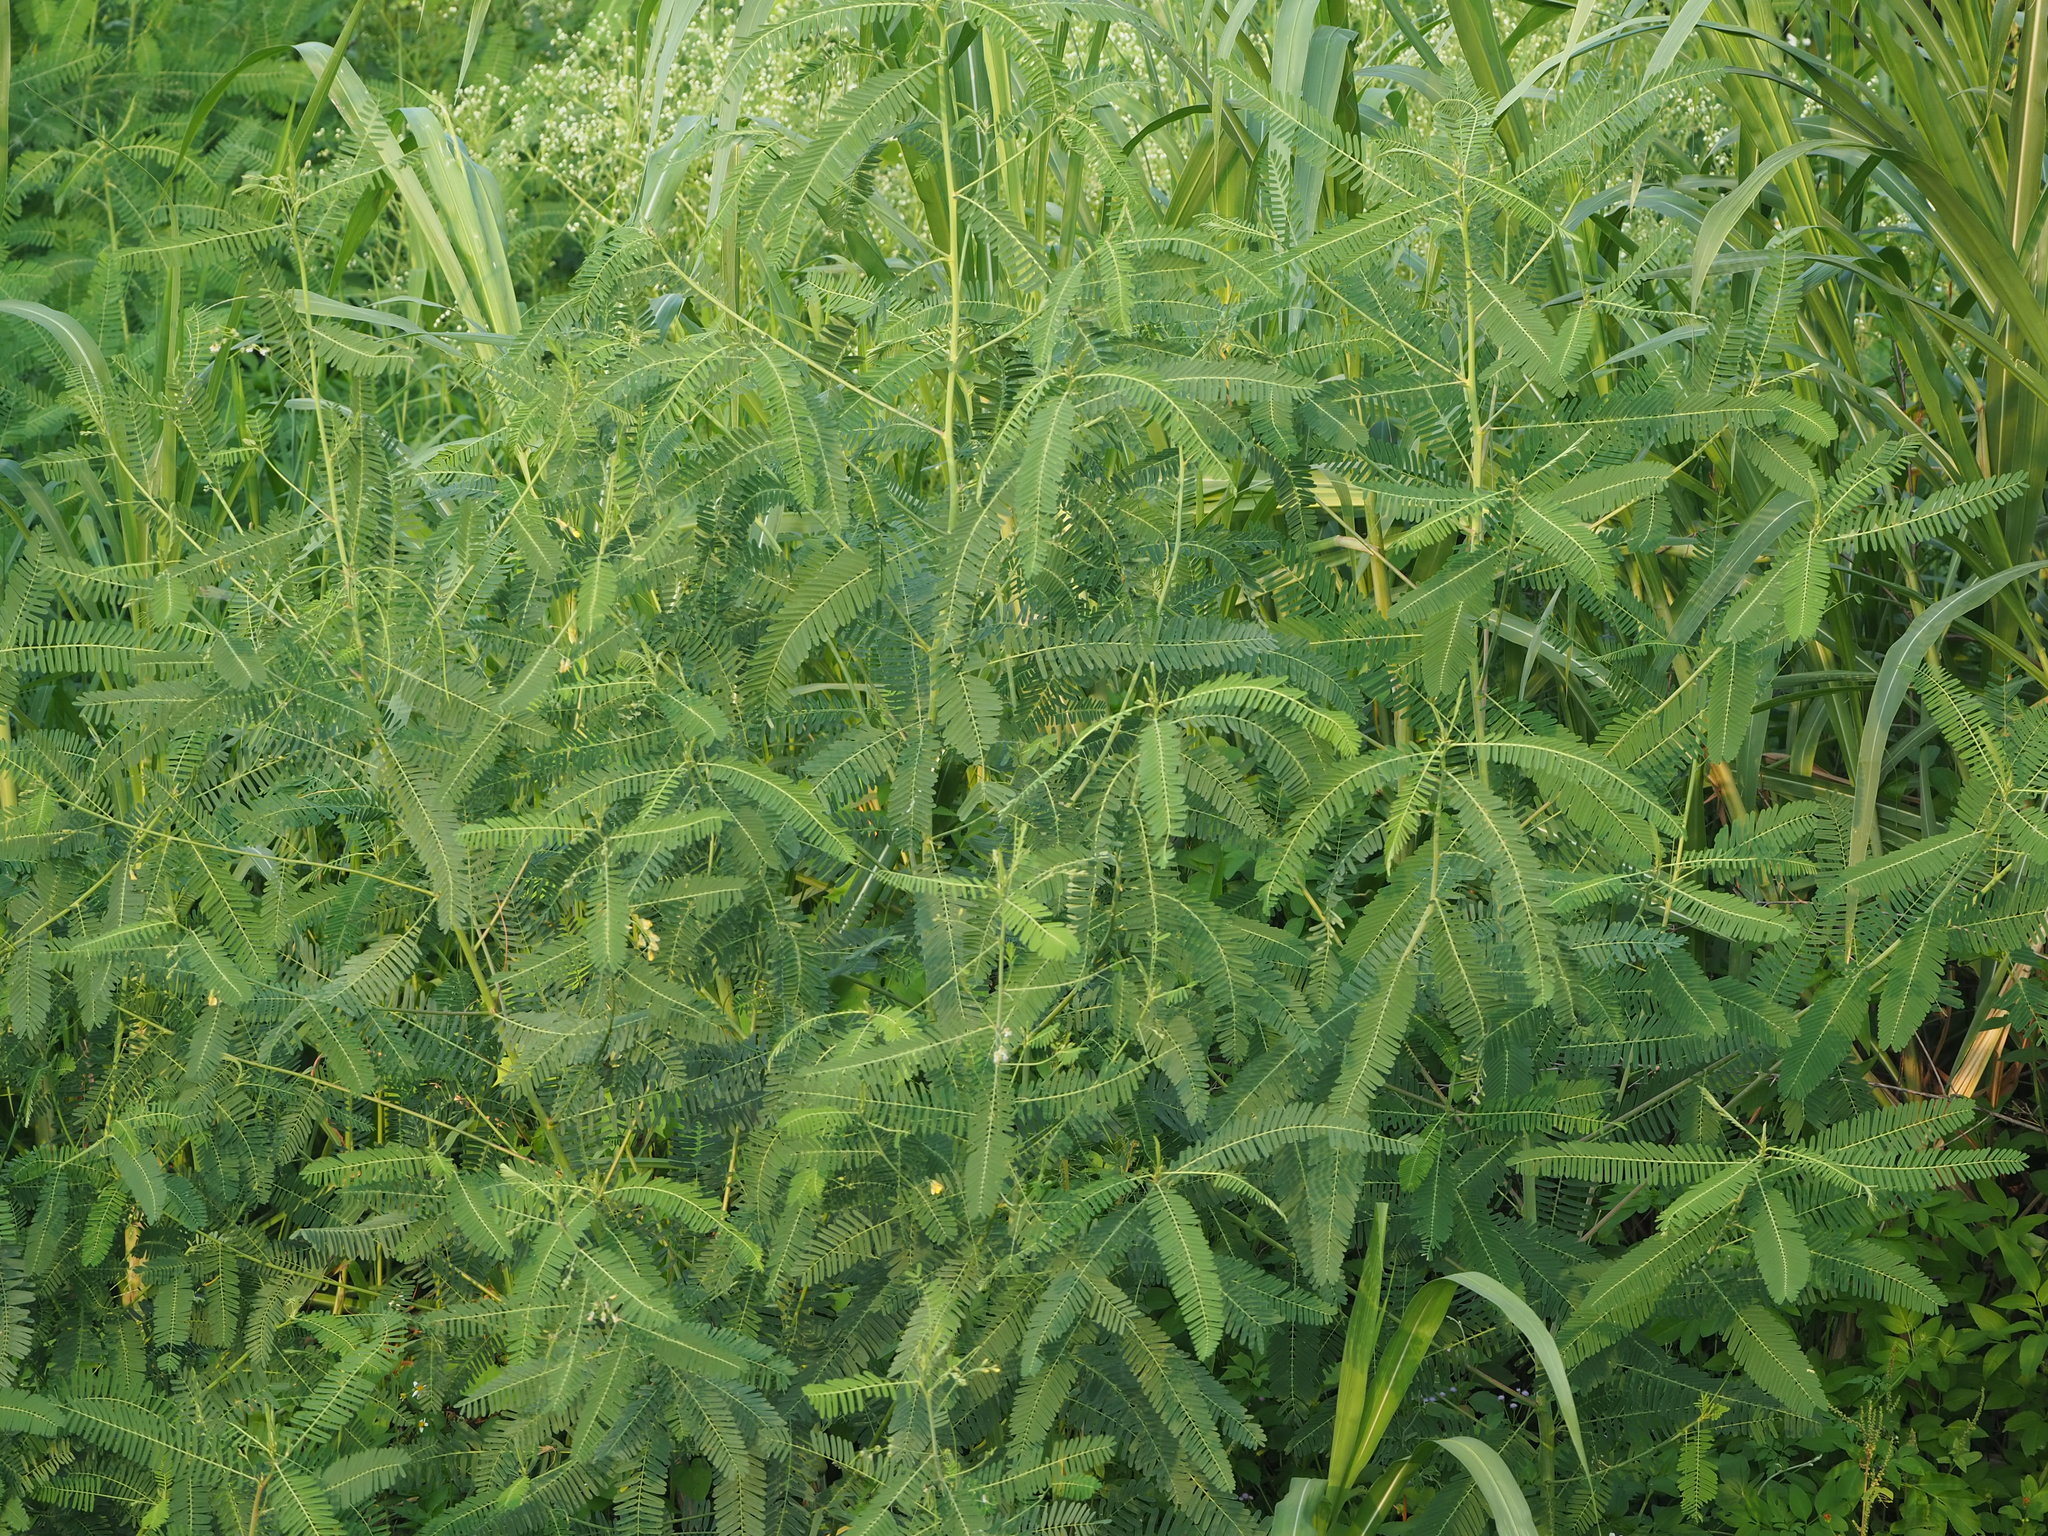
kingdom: Plantae
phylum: Tracheophyta
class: Magnoliopsida
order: Fabales
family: Fabaceae
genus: Sesbania
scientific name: Sesbania cannabina
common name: Canicha
